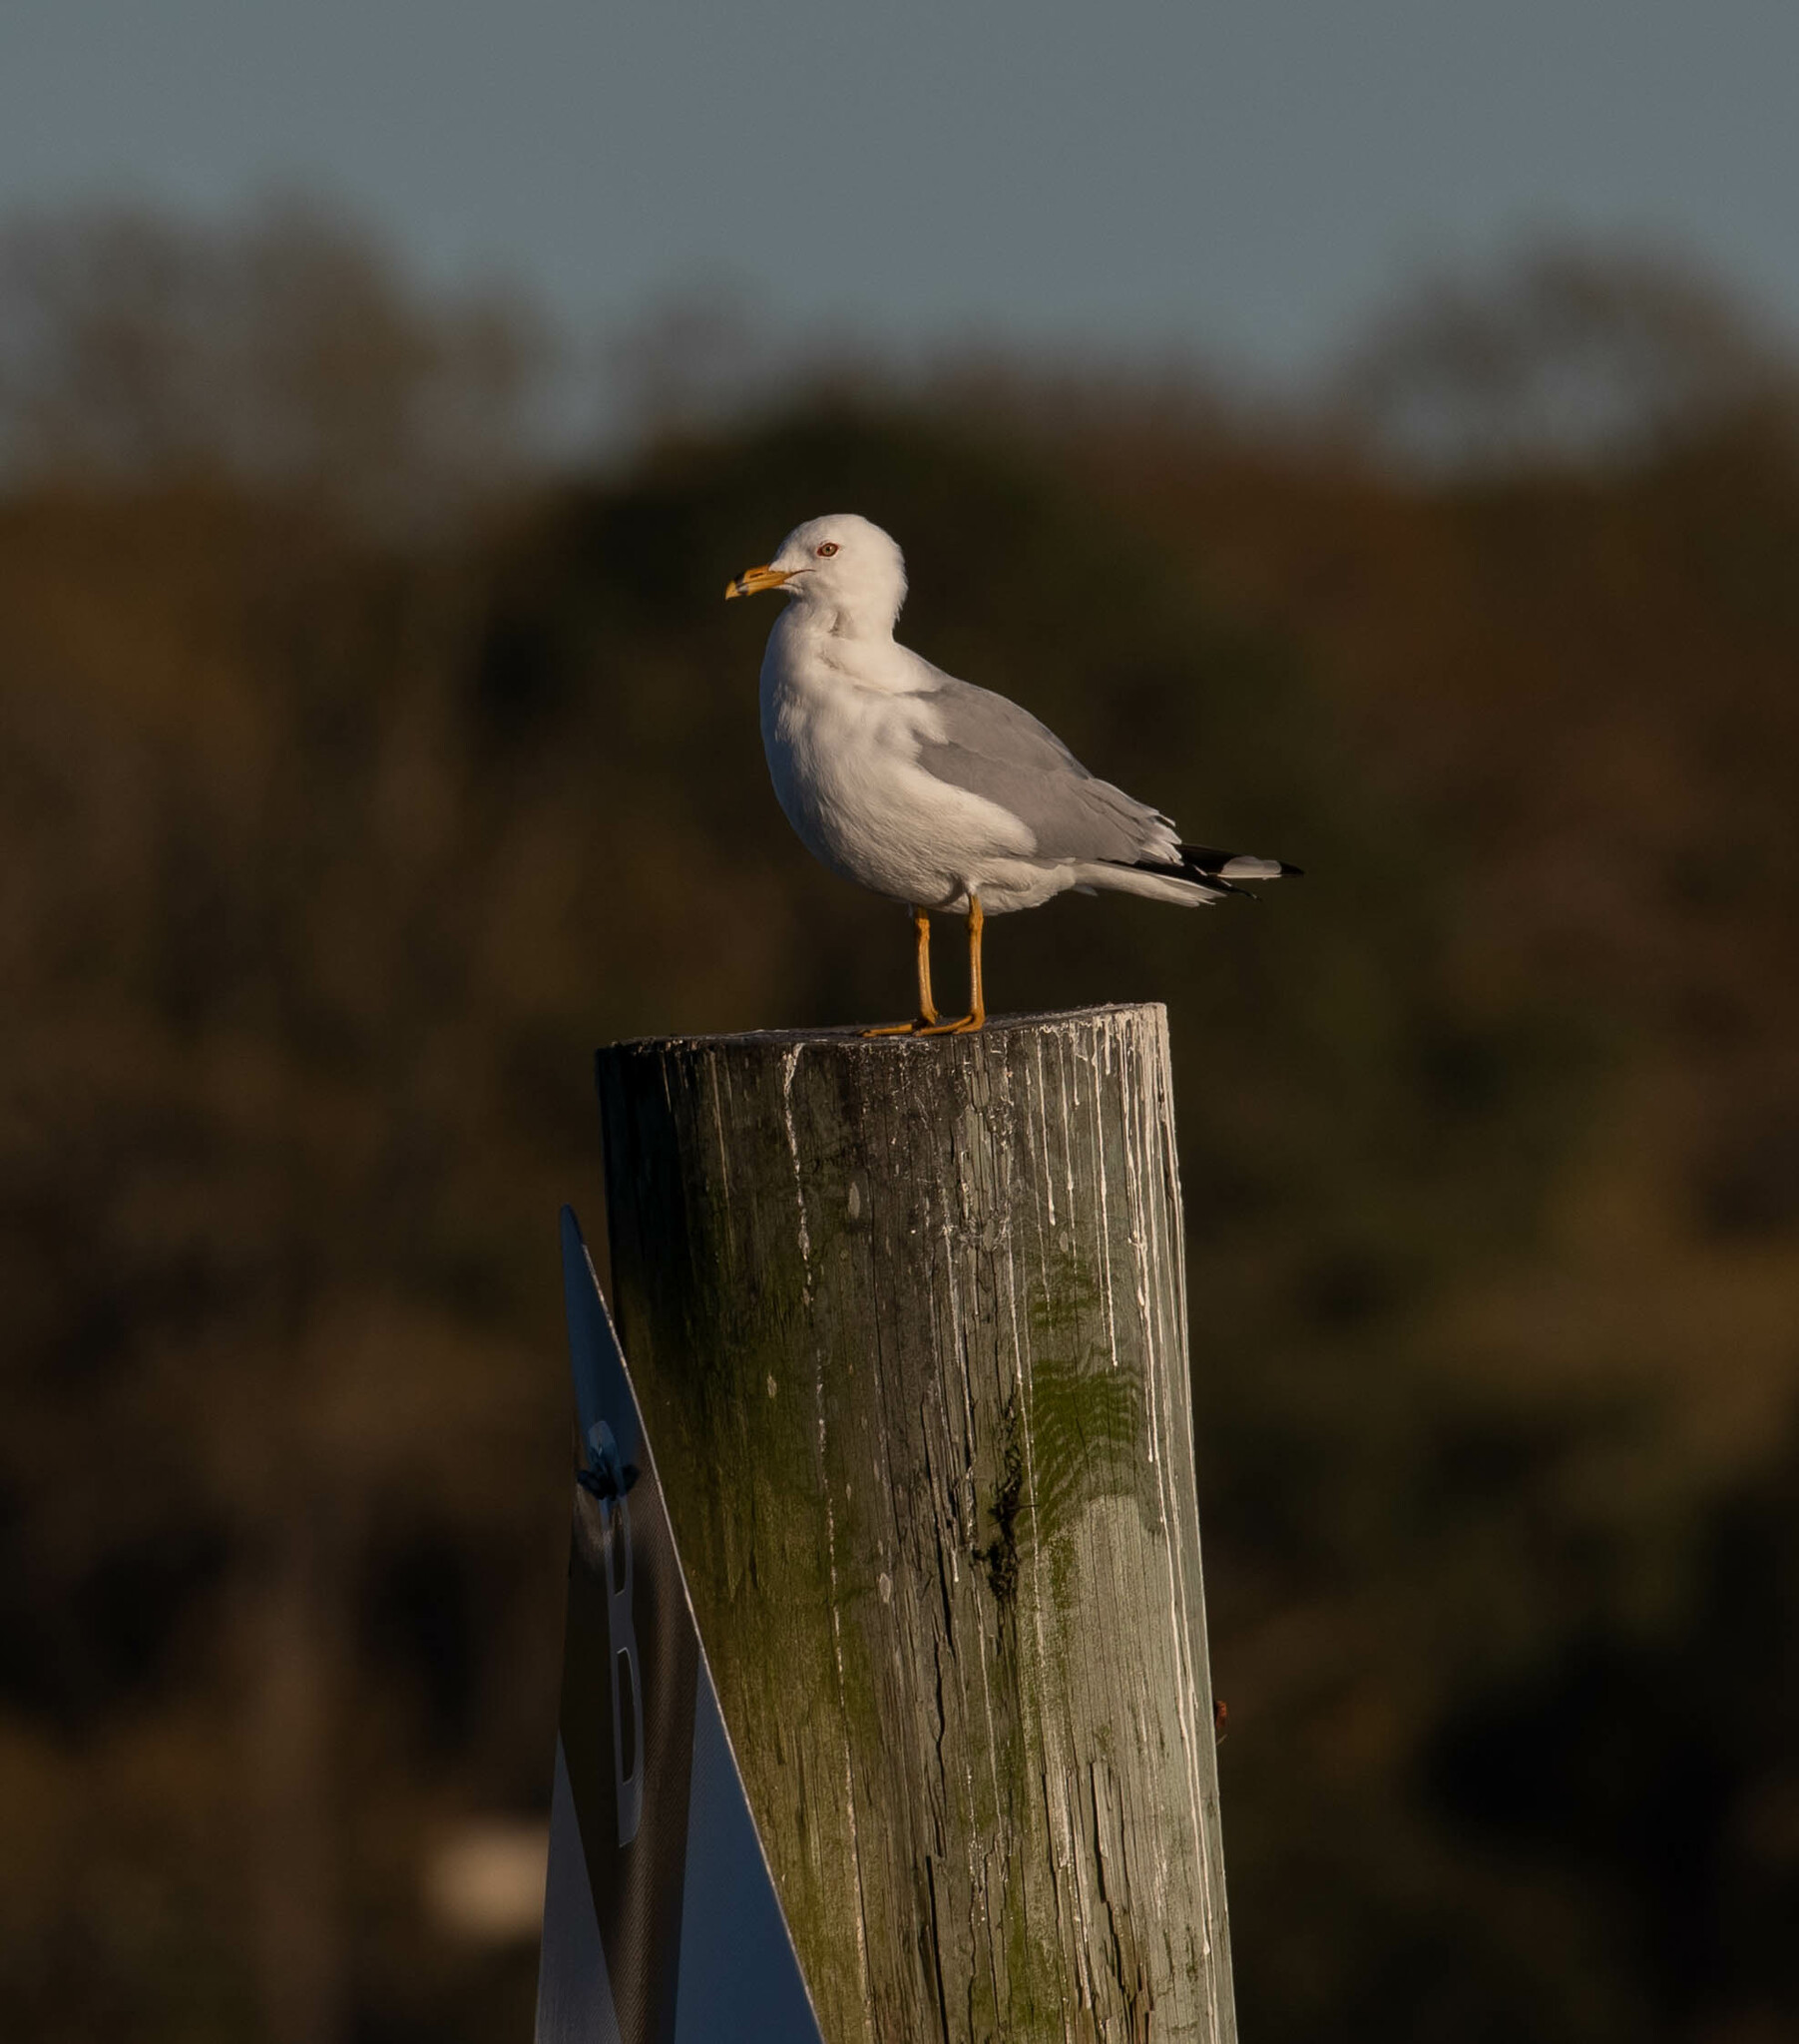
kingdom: Animalia
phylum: Chordata
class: Aves
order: Charadriiformes
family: Laridae
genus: Larus
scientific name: Larus delawarensis
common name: Ring-billed gull
